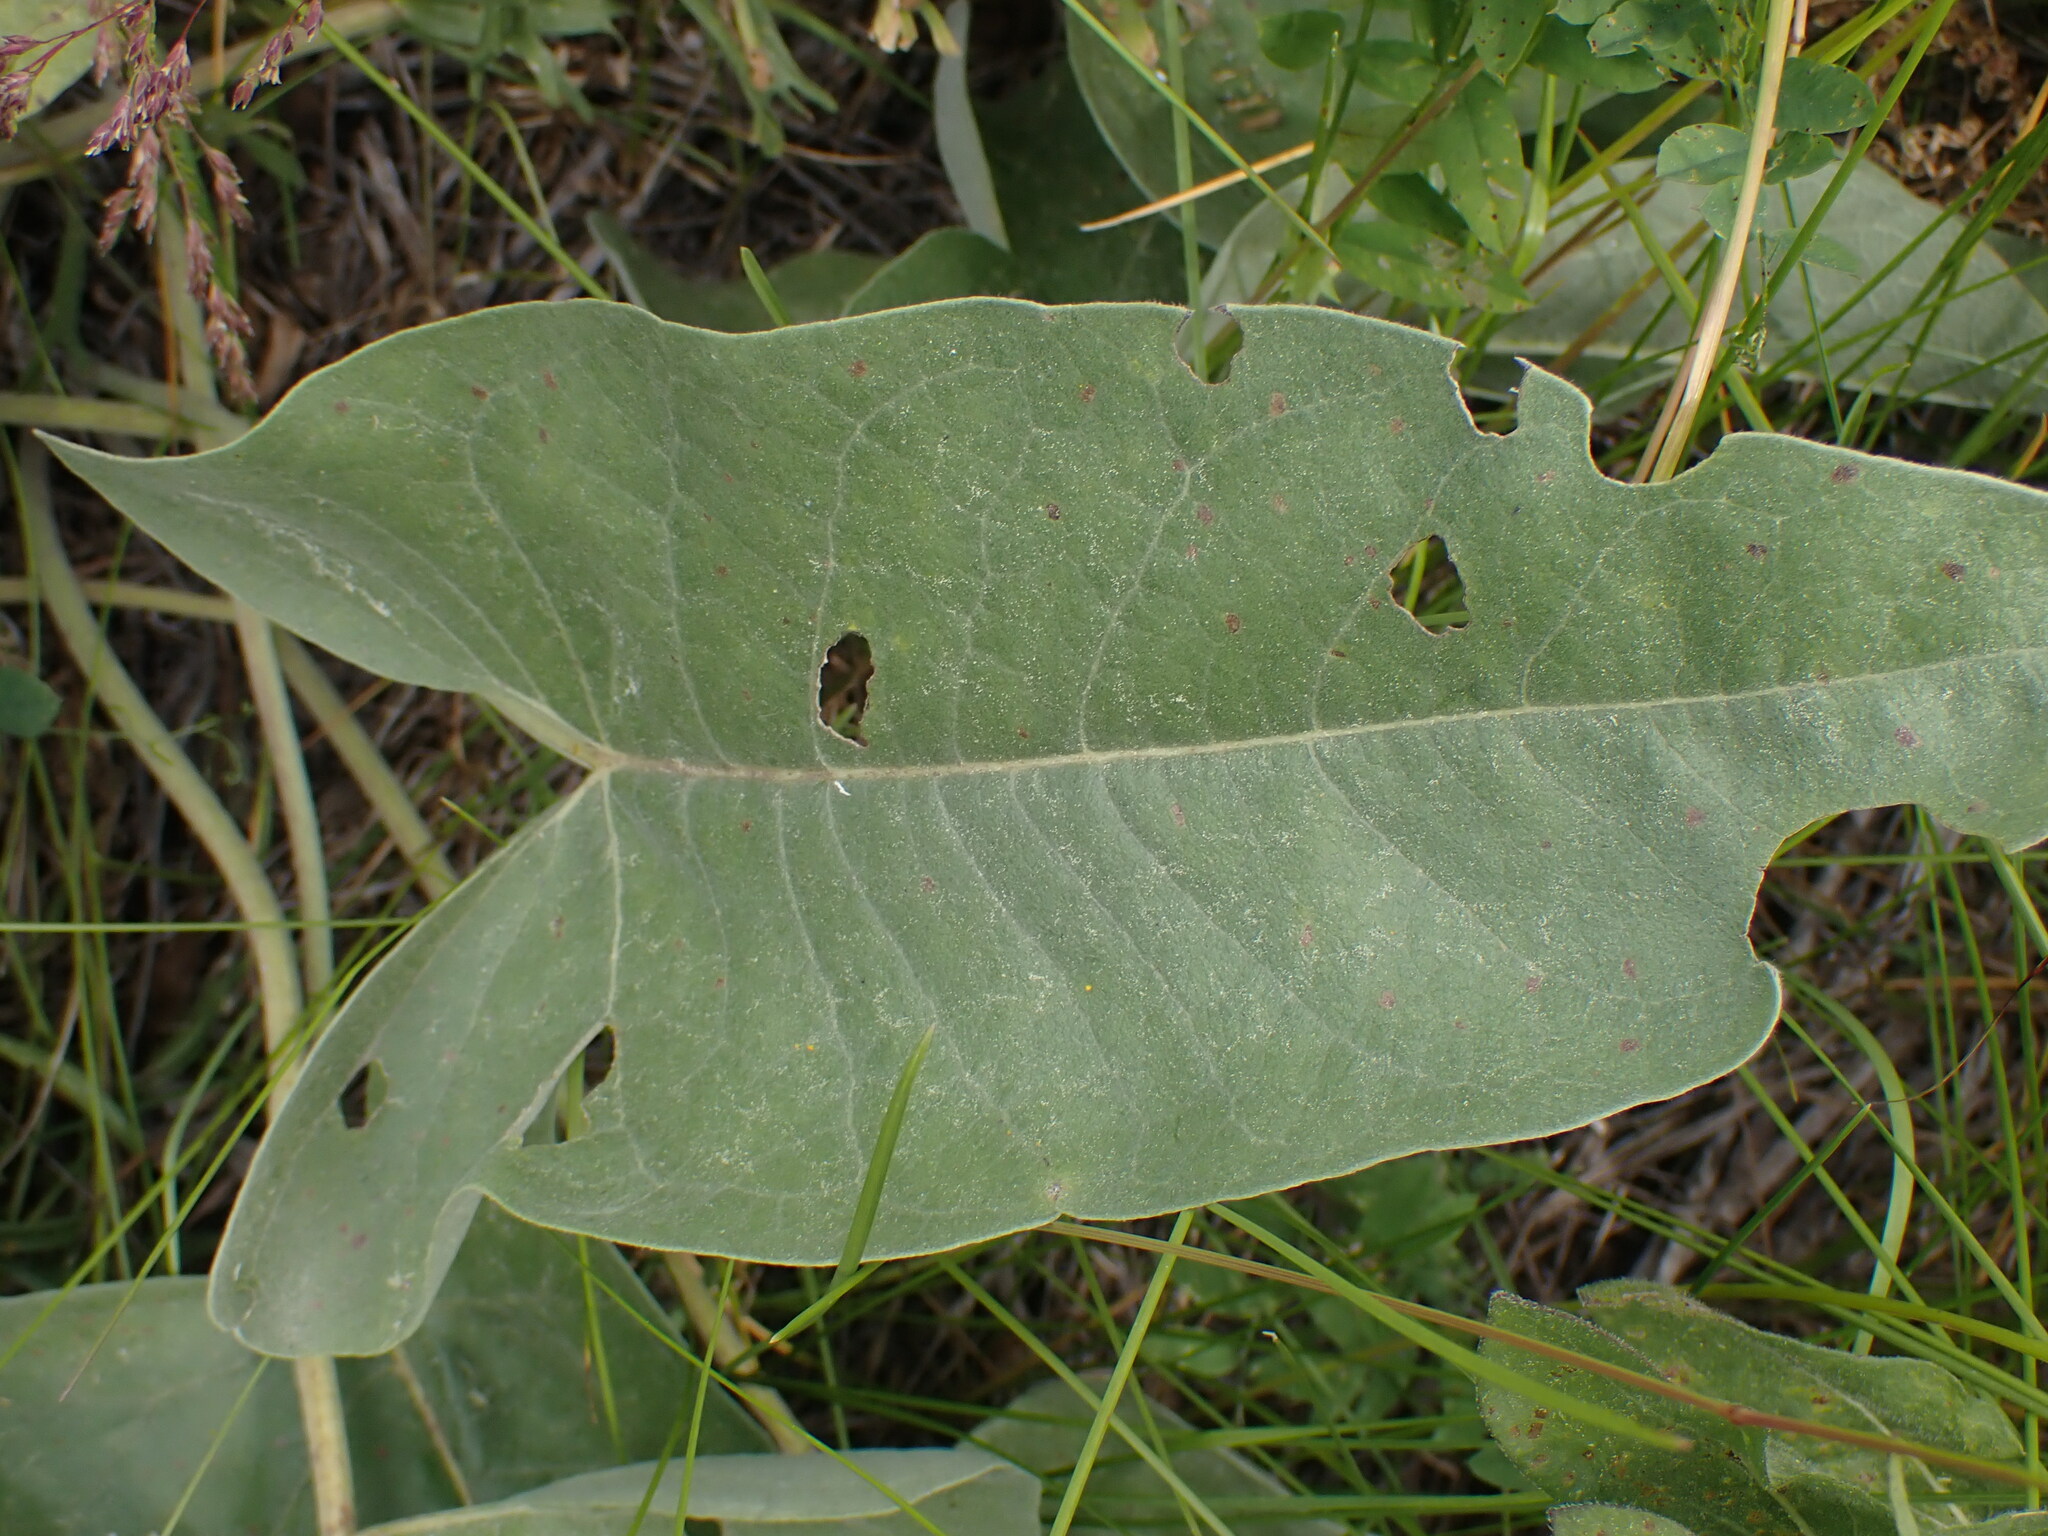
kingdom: Plantae
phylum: Tracheophyta
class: Magnoliopsida
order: Asterales
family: Asteraceae
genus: Wyethia
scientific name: Wyethia sagittata
